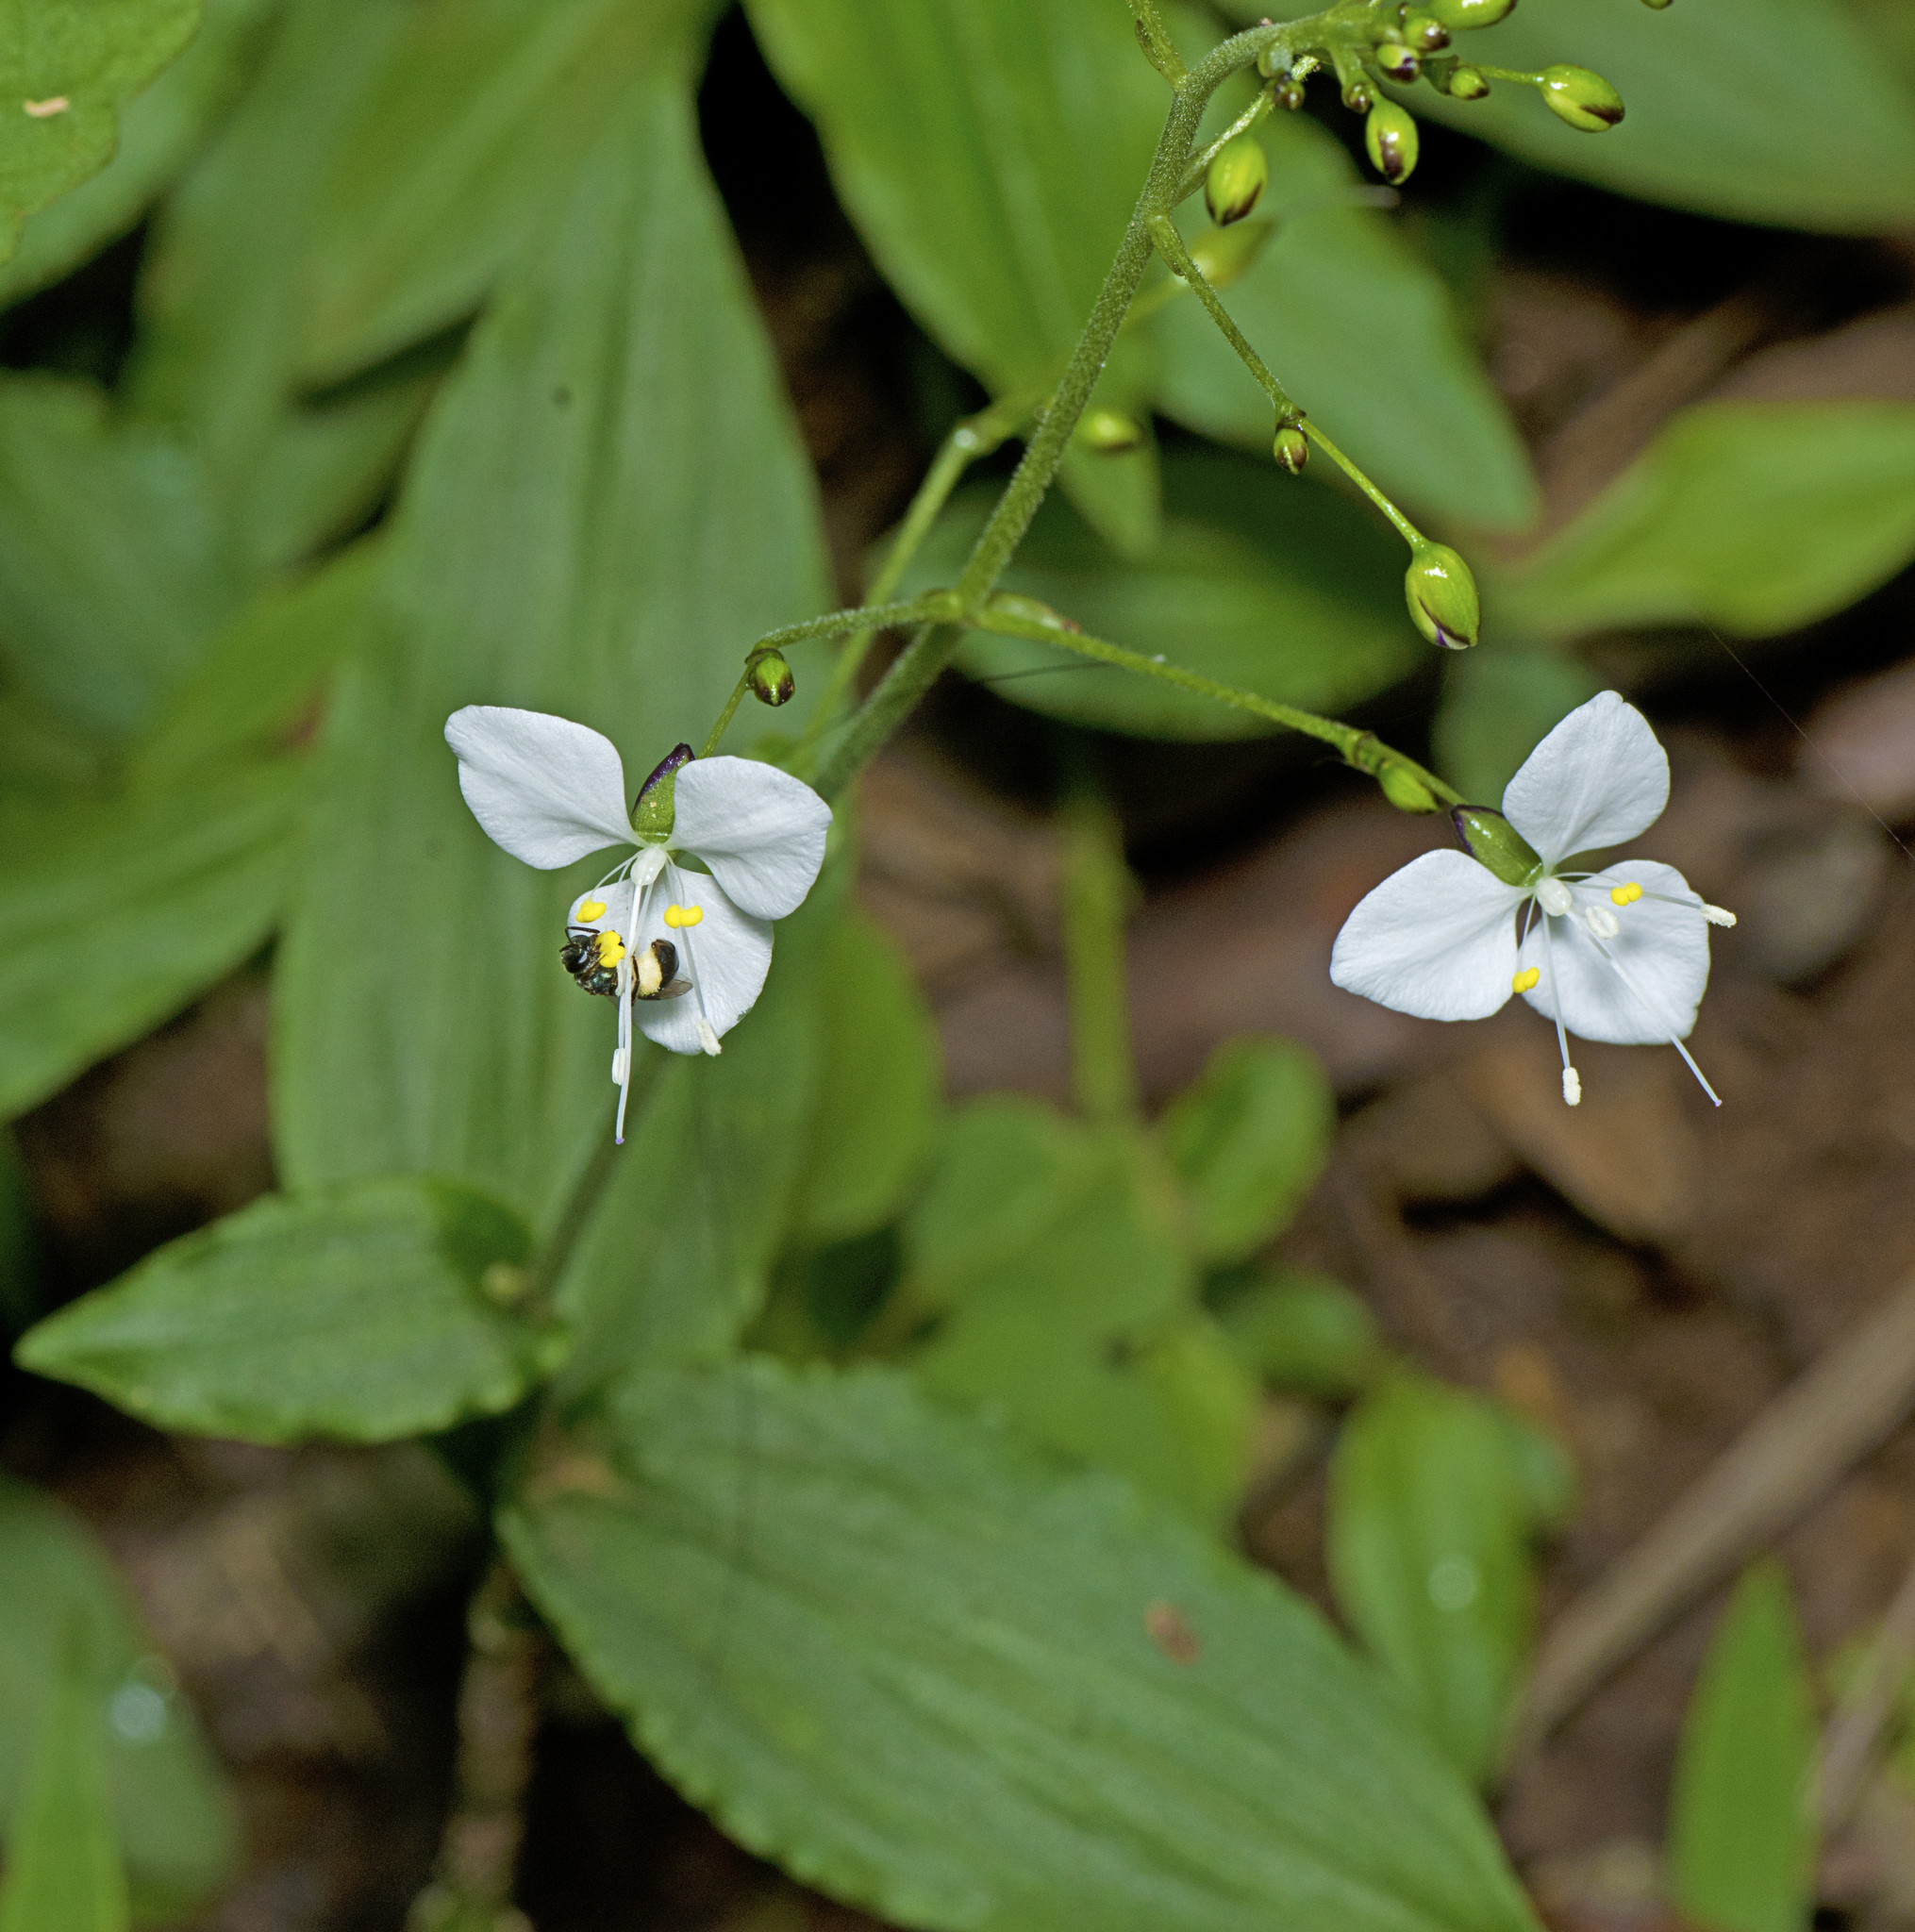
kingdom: Plantae
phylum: Tracheophyta
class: Liliopsida
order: Commelinales
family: Commelinaceae
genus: Aneilema
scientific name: Aneilema acuminatum
